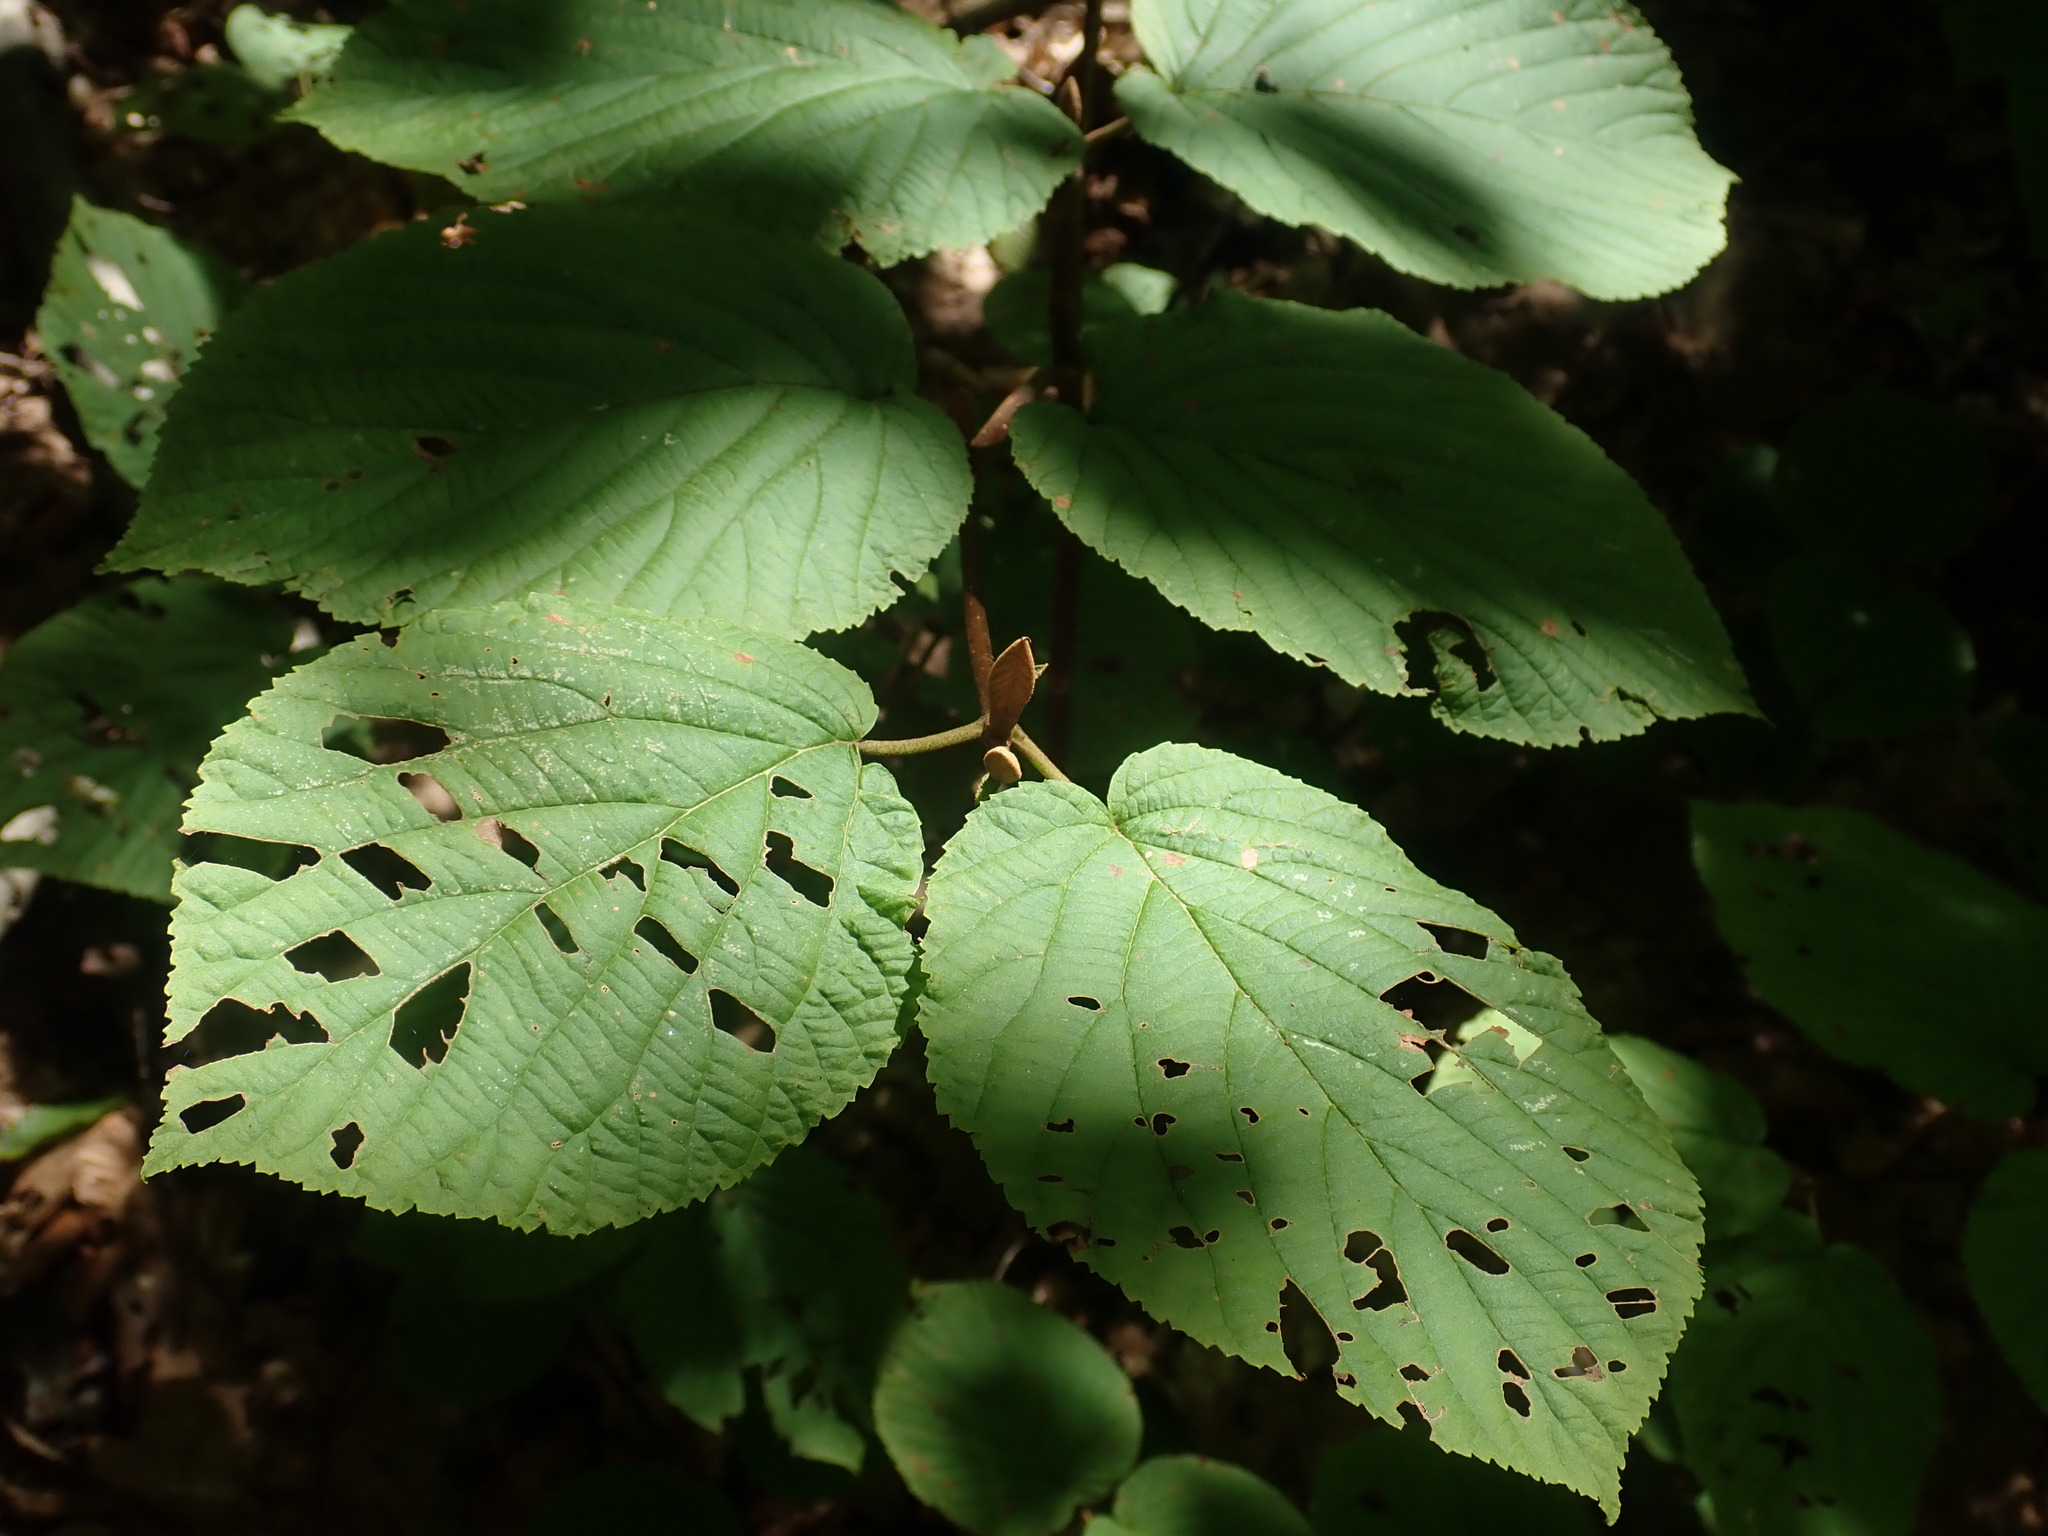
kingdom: Plantae
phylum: Tracheophyta
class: Magnoliopsida
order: Dipsacales
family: Viburnaceae
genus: Viburnum
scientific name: Viburnum lantanoides
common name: Hobblebush
